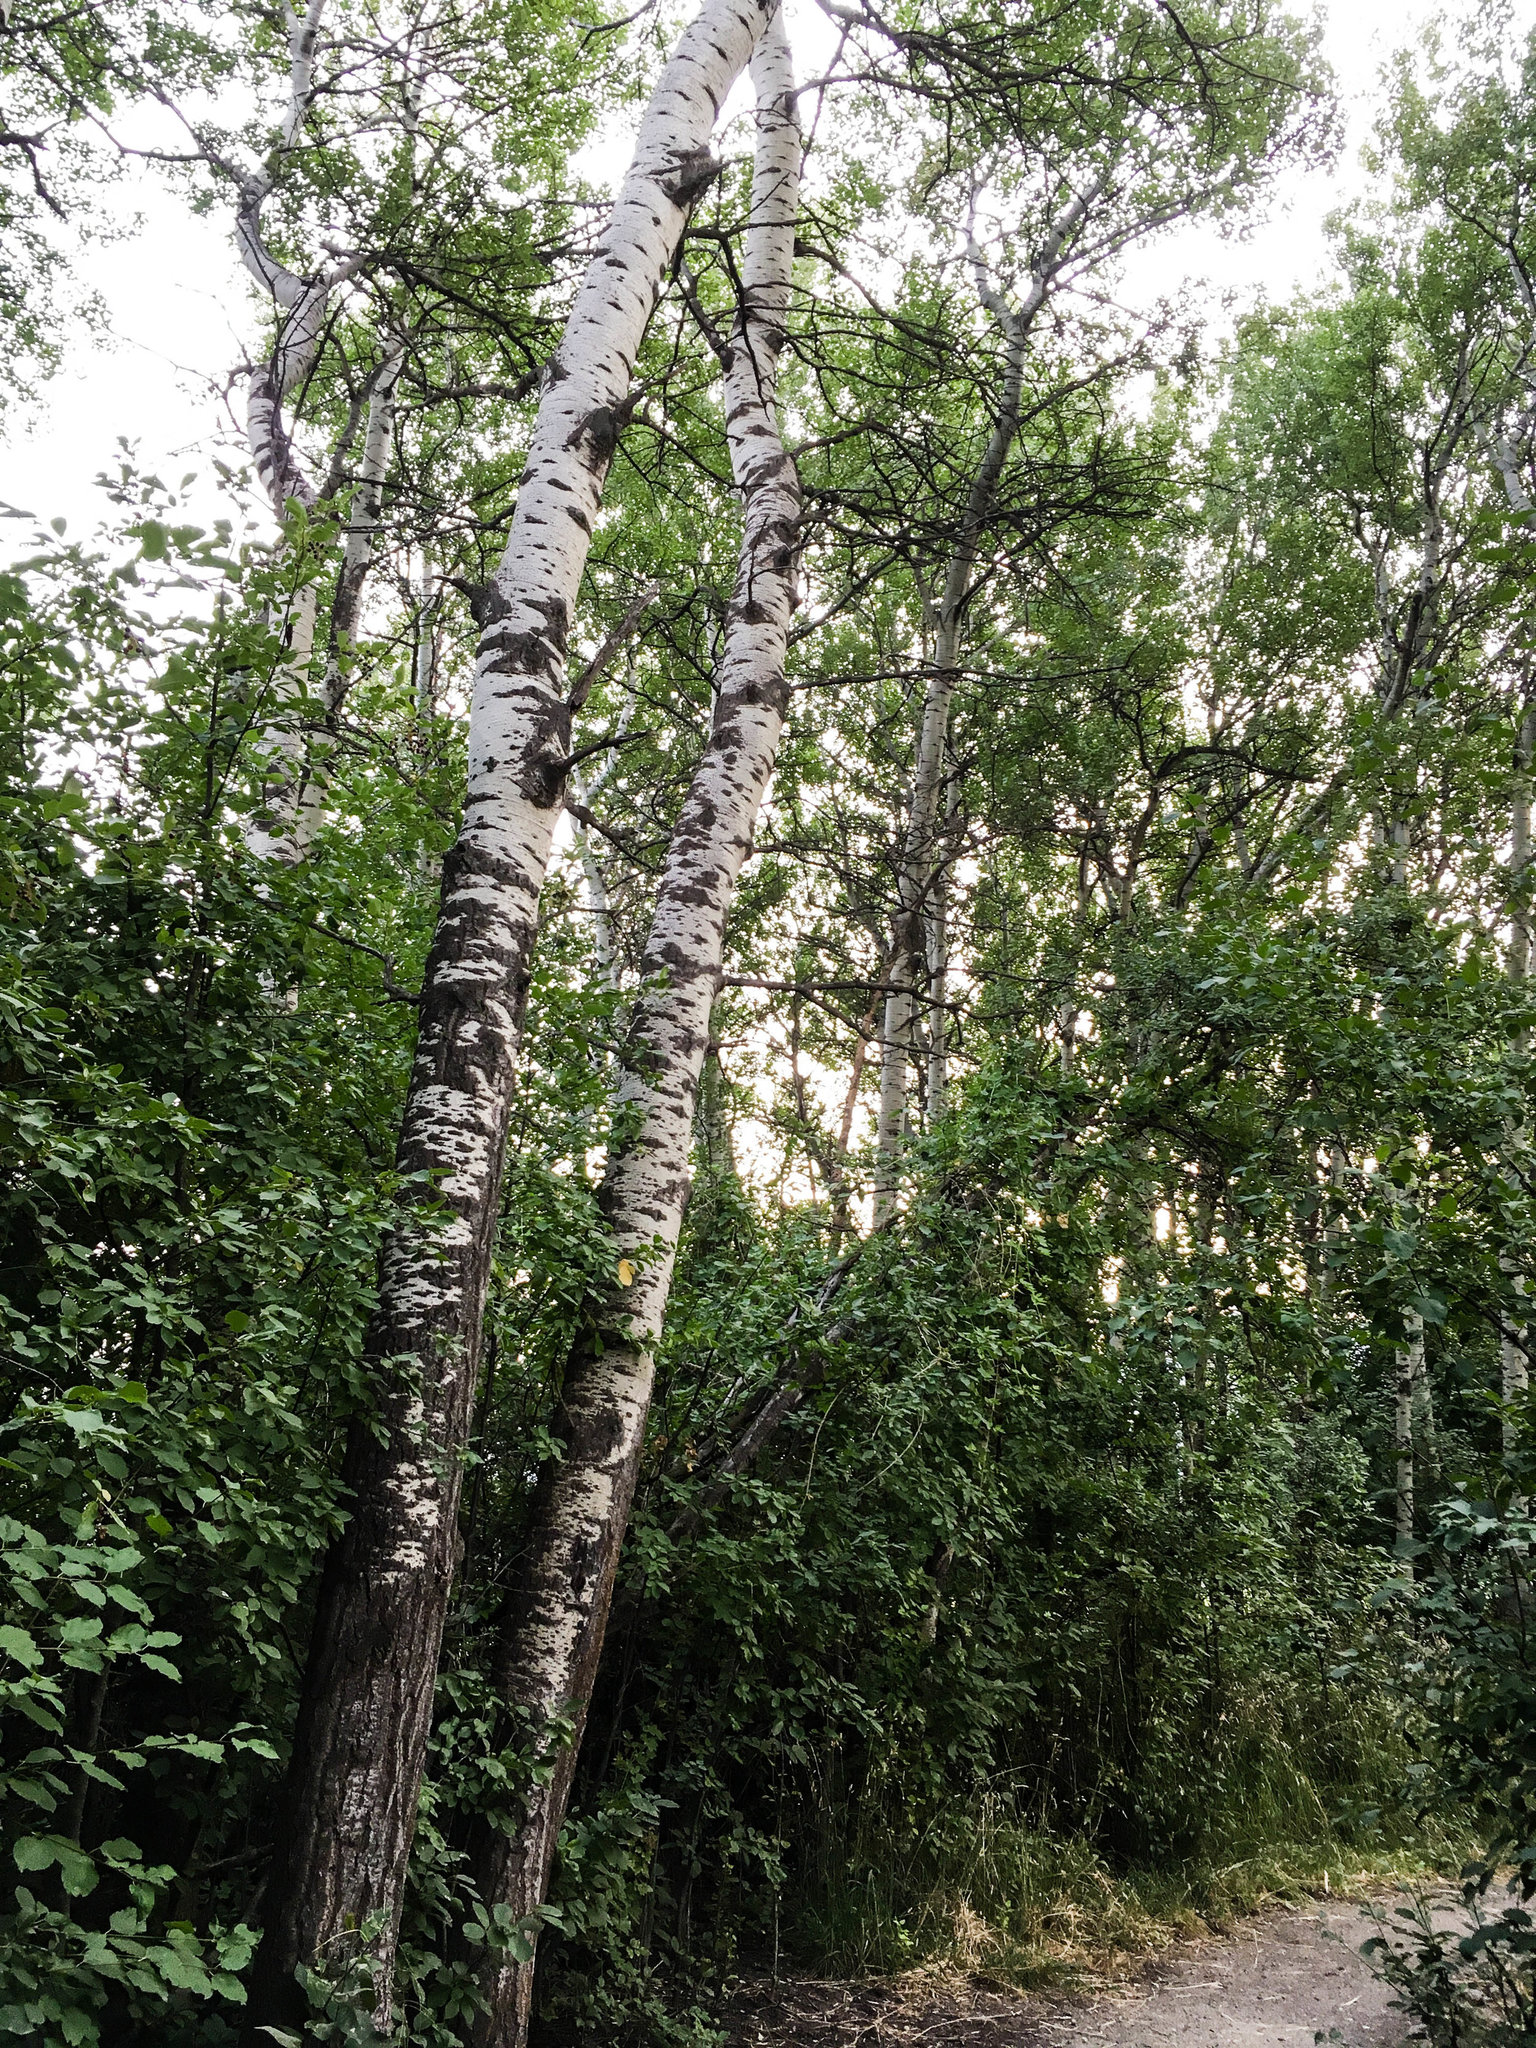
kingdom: Plantae
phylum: Tracheophyta
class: Magnoliopsida
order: Malpighiales
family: Salicaceae
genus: Populus
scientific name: Populus tremuloides
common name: Quaking aspen
